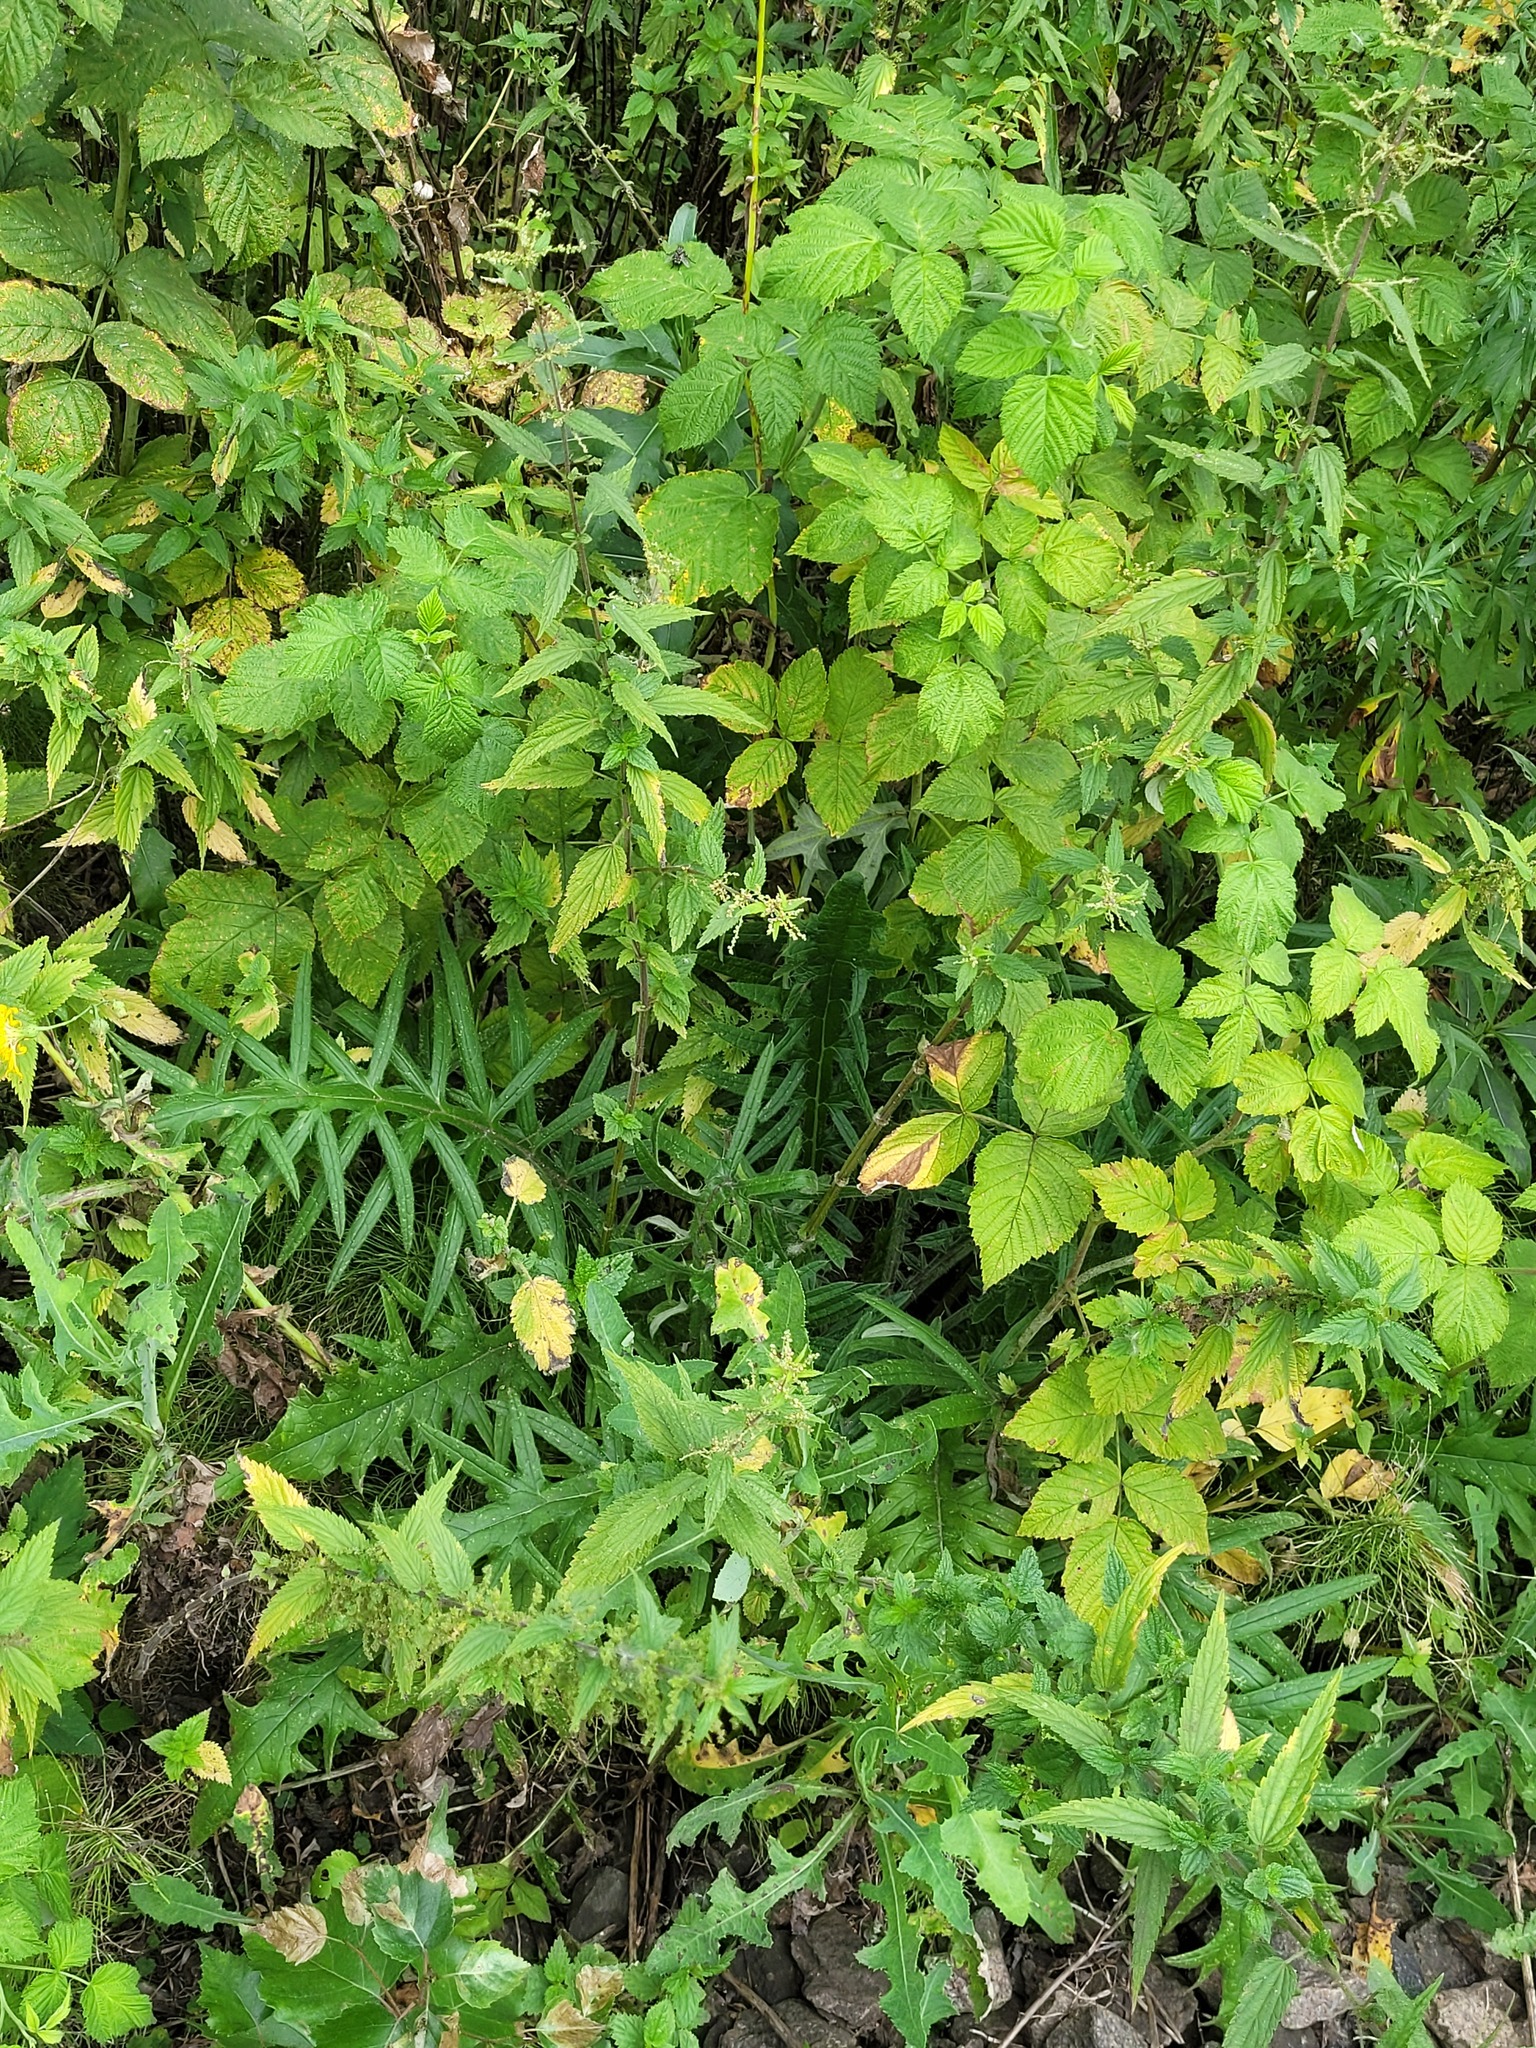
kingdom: Plantae
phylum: Tracheophyta
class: Magnoliopsida
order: Asterales
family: Asteraceae
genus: Lophiolepis
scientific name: Lophiolepis decussata
